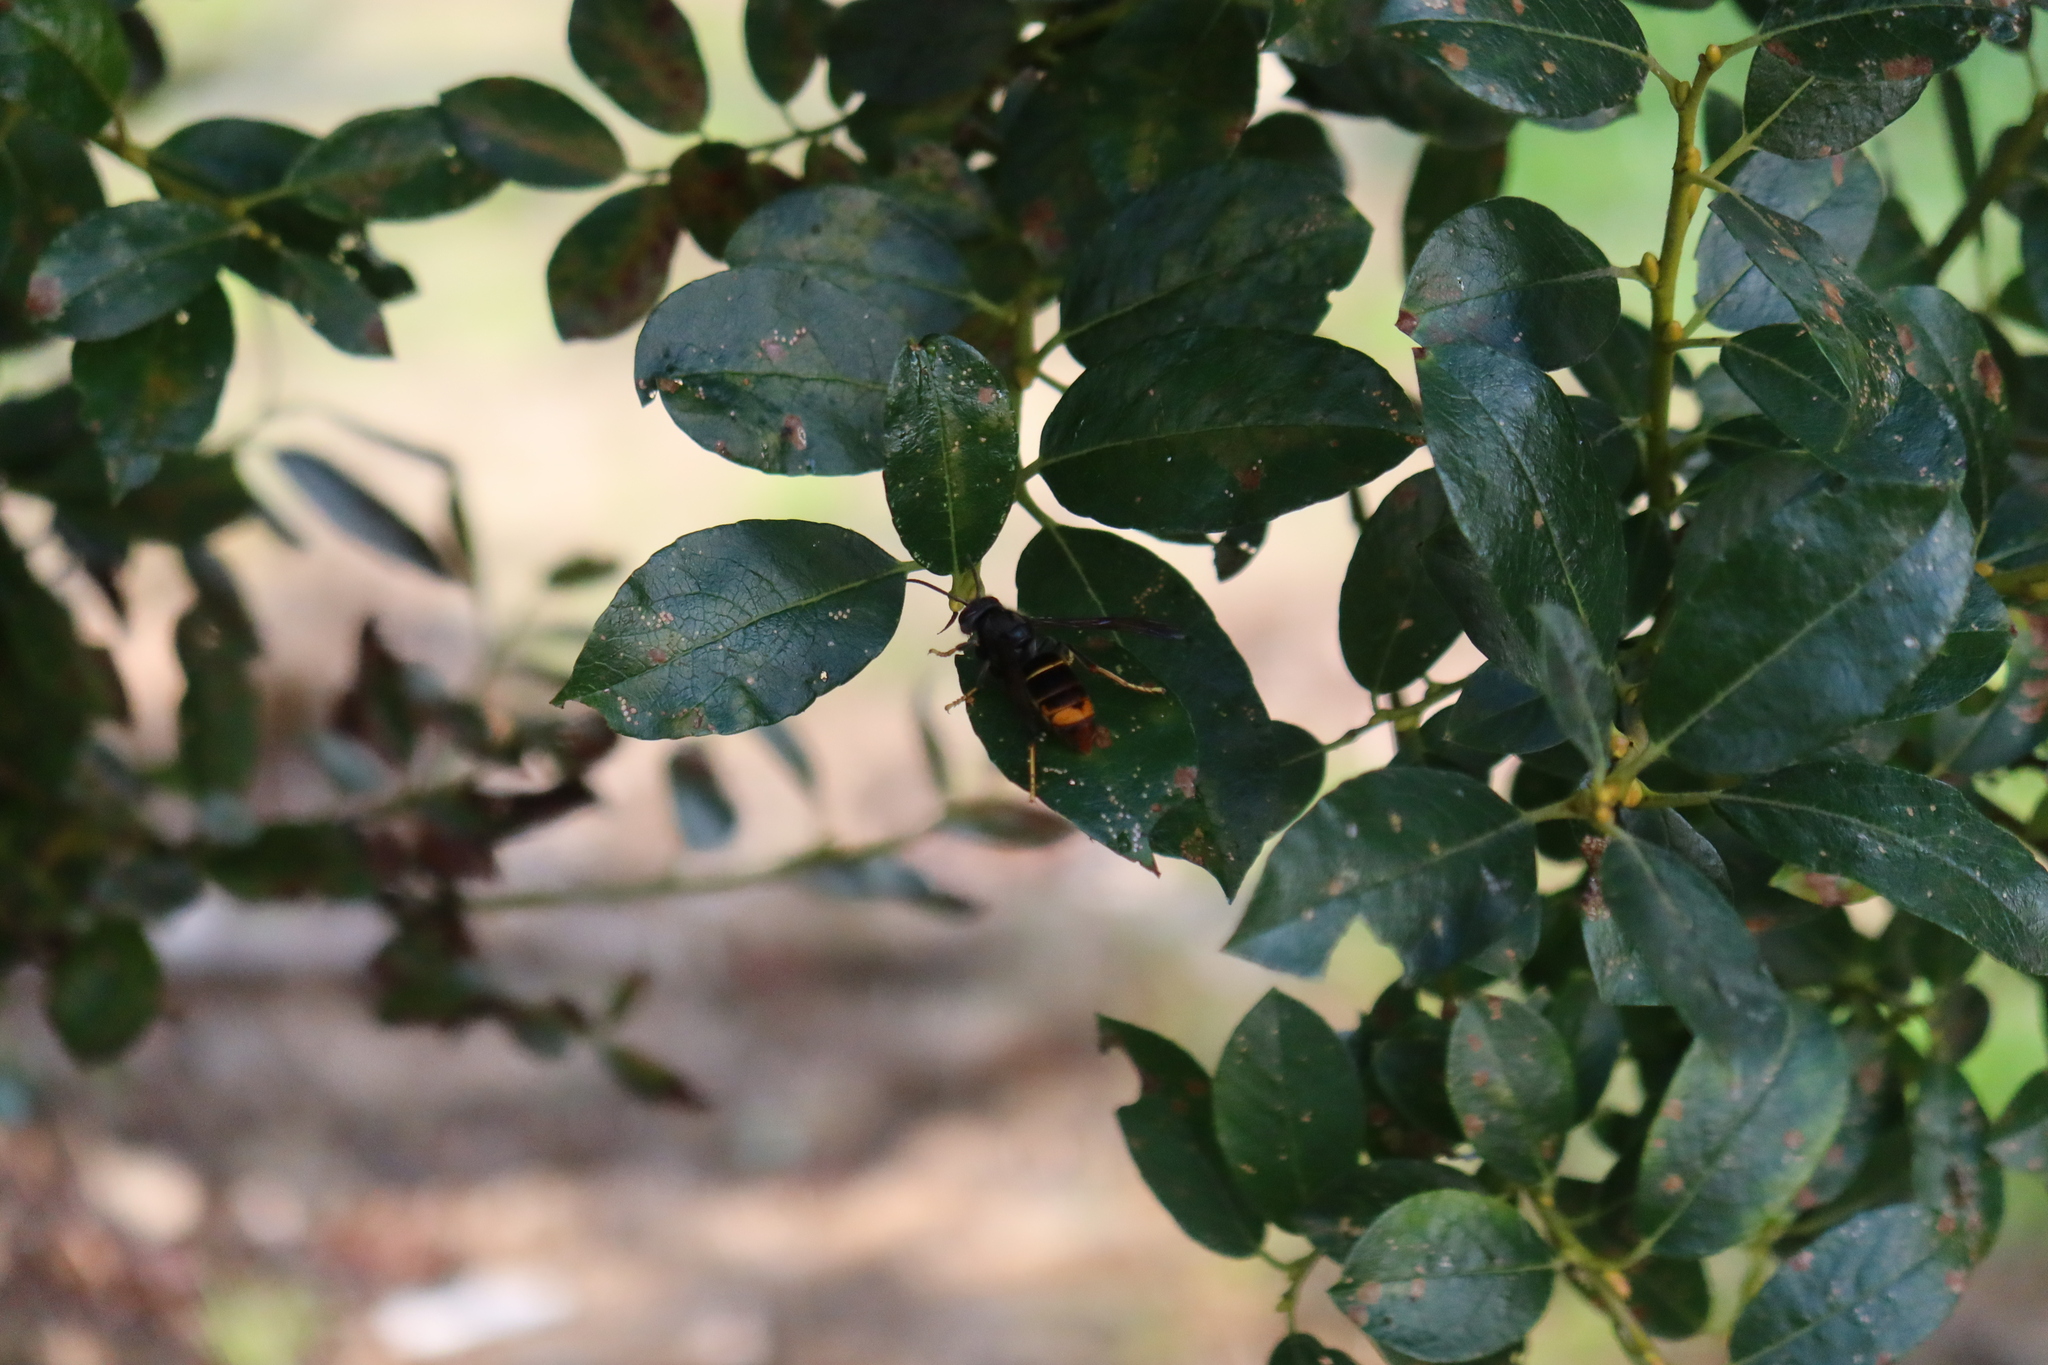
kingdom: Animalia
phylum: Arthropoda
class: Insecta
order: Hymenoptera
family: Vespidae
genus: Vespa
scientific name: Vespa velutina
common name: Asian hornet
